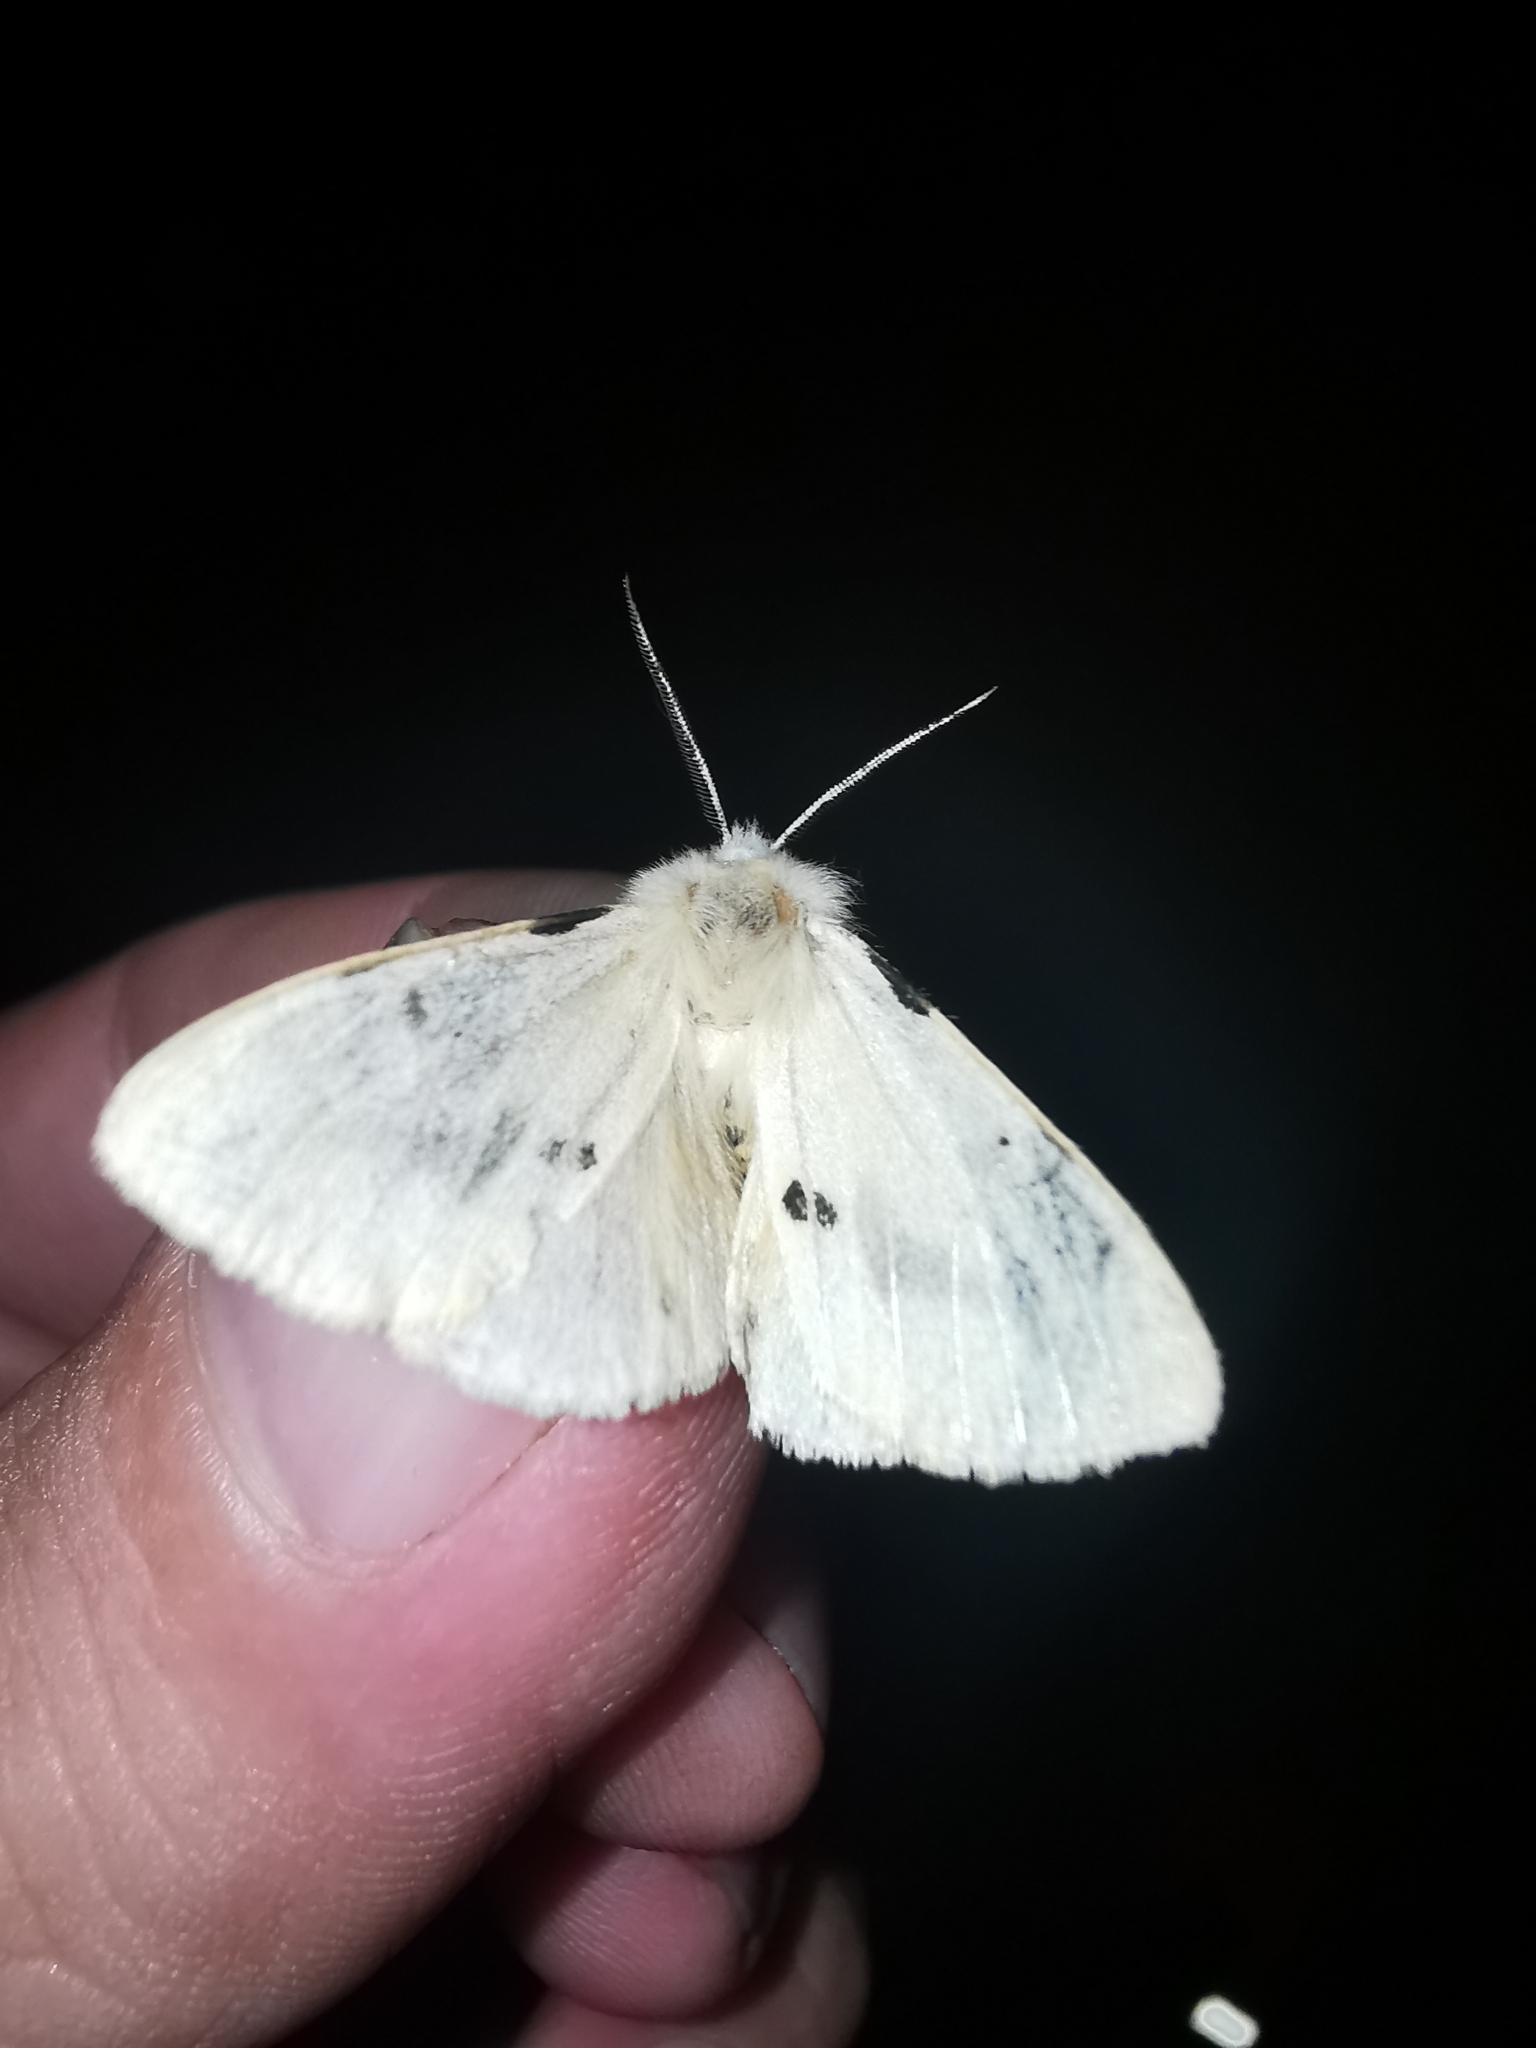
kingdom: Animalia
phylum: Arthropoda
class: Insecta
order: Lepidoptera
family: Erebidae
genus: Spilarctia
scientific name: Spilarctia lutea
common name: Buff ermine
